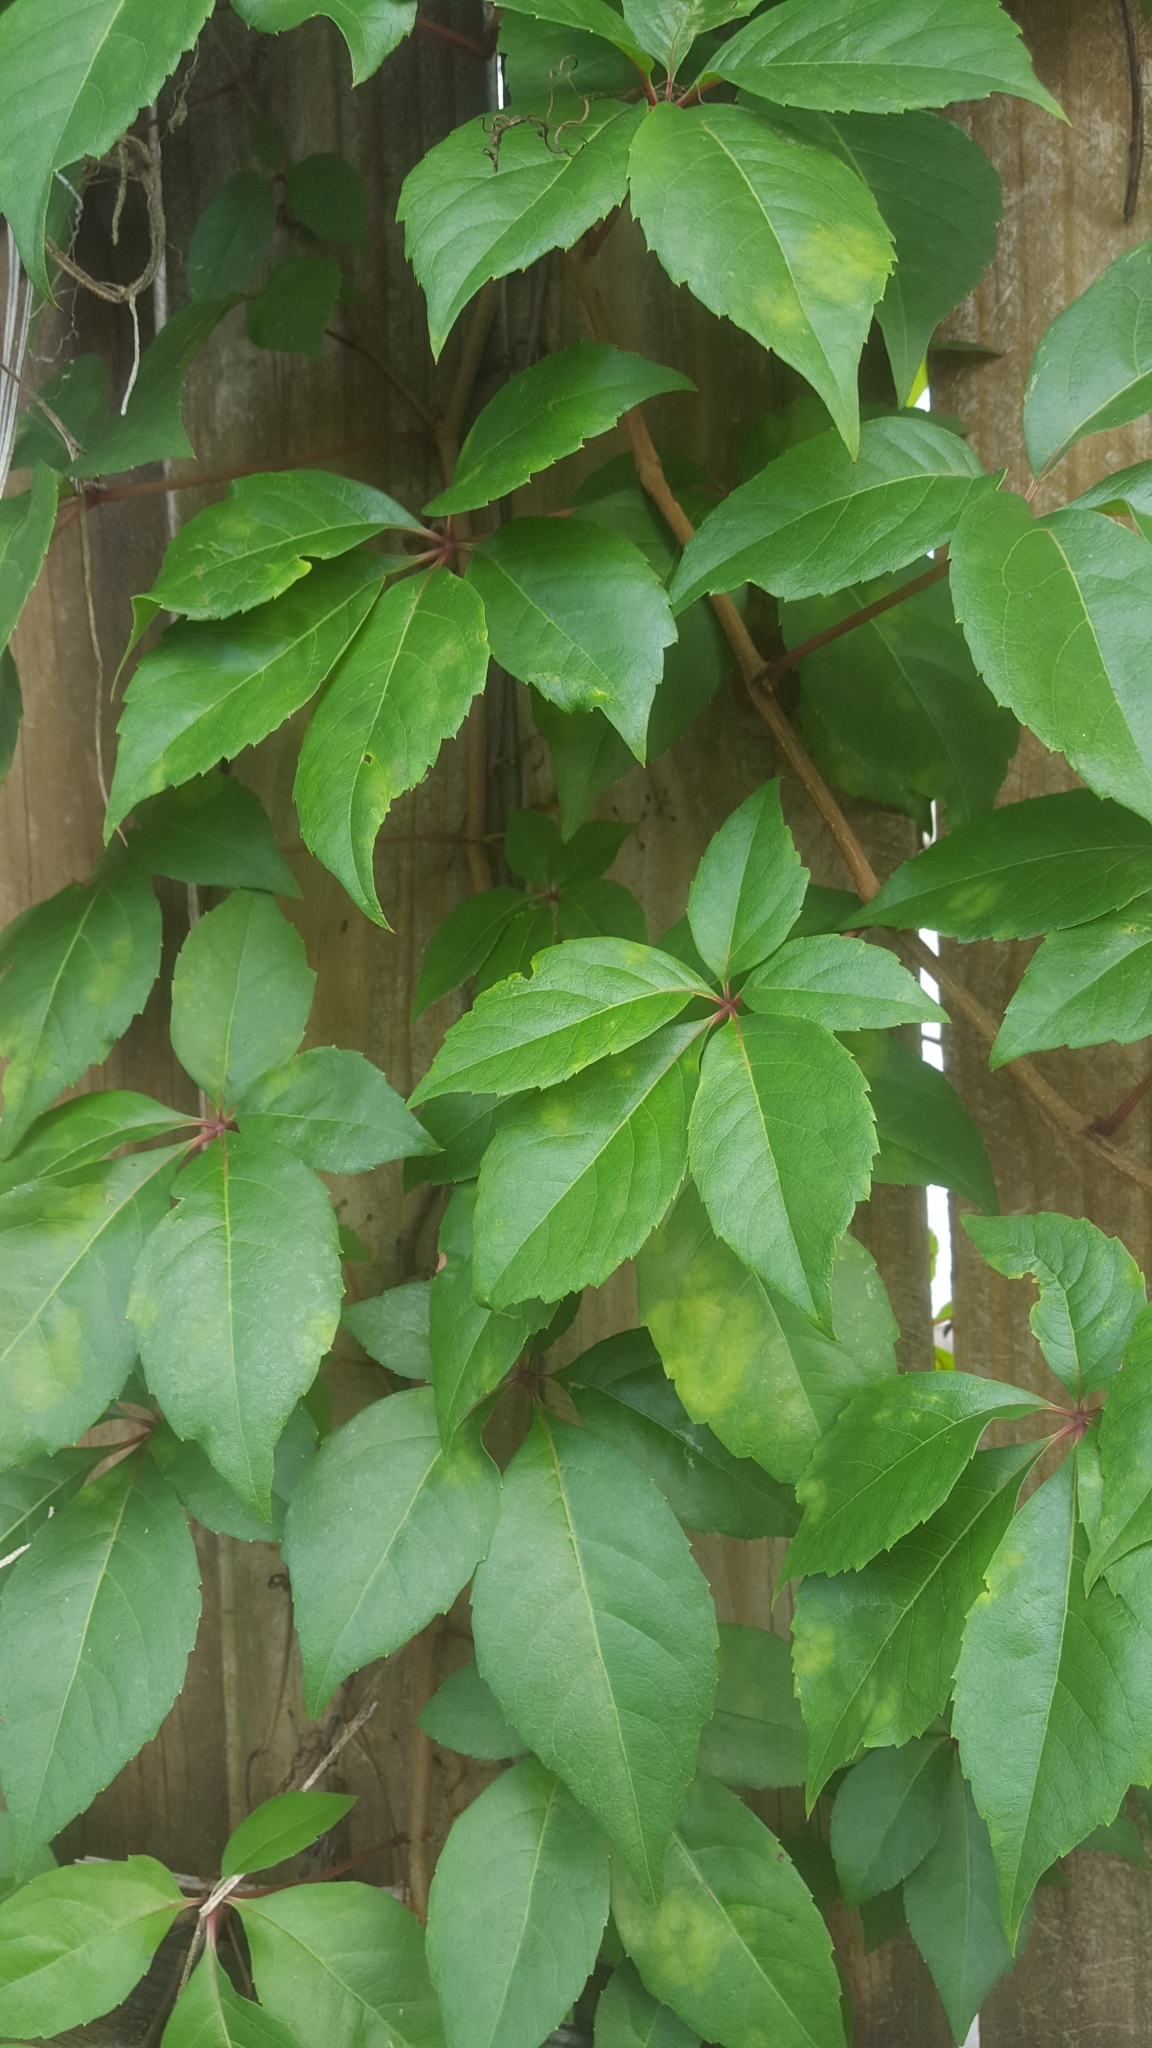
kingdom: Plantae
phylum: Tracheophyta
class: Magnoliopsida
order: Vitales
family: Vitaceae
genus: Parthenocissus
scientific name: Parthenocissus quinquefolia
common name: Virginia-creeper
